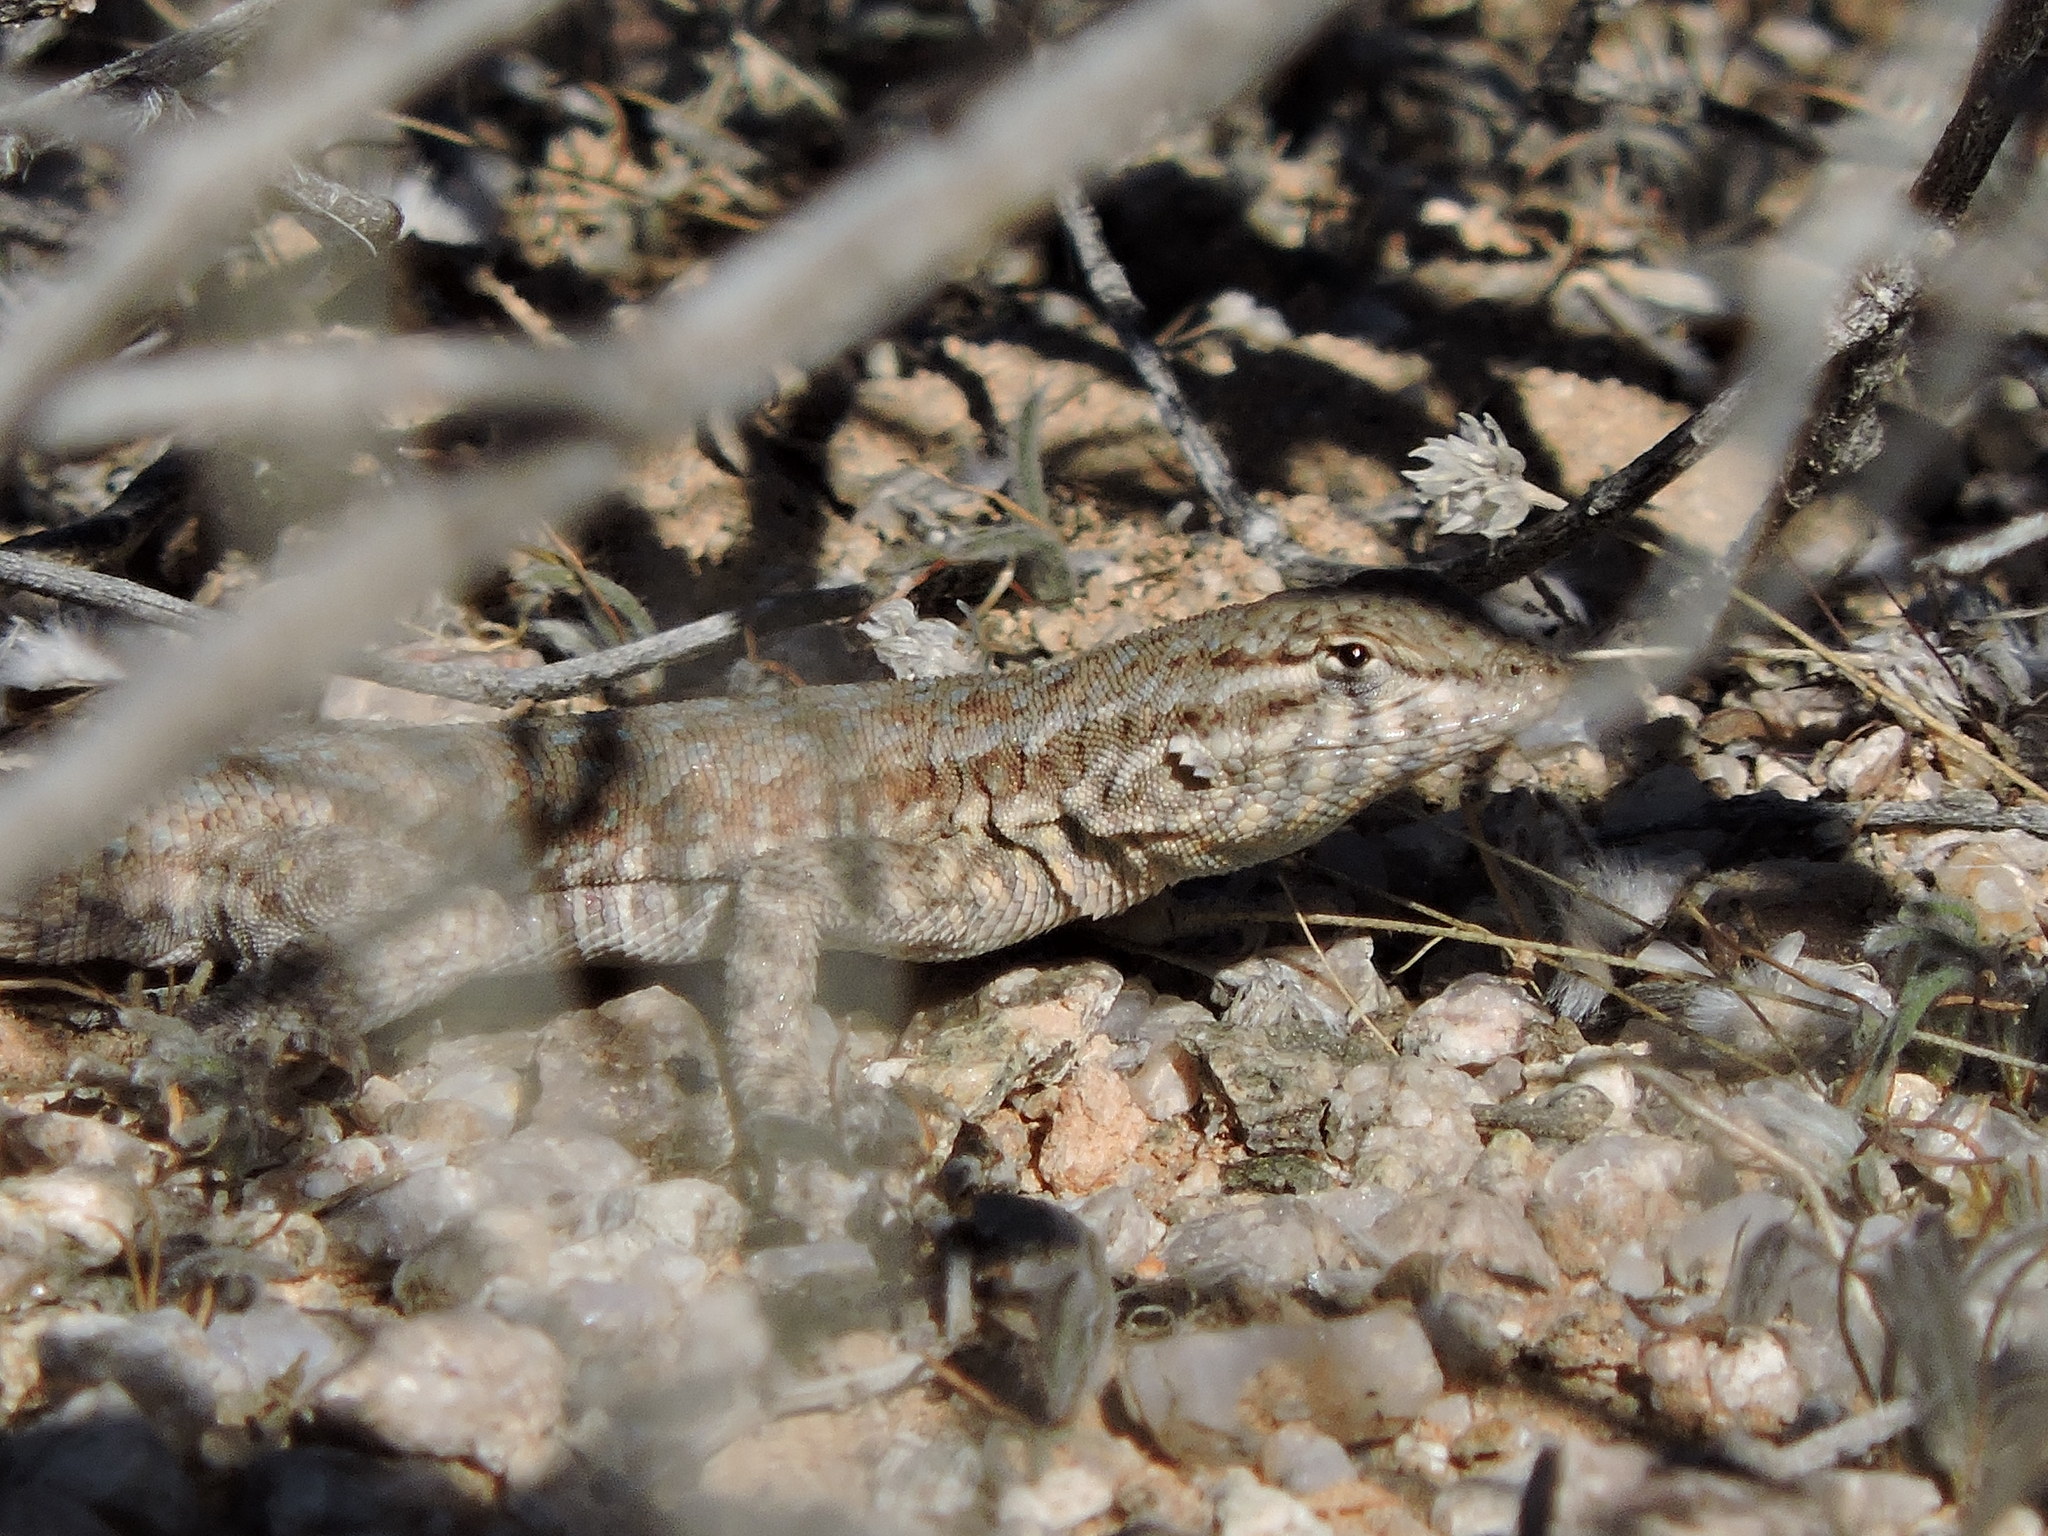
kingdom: Animalia
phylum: Chordata
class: Squamata
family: Phrynosomatidae
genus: Uta
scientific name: Uta stansburiana
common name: Side-blotched lizard
